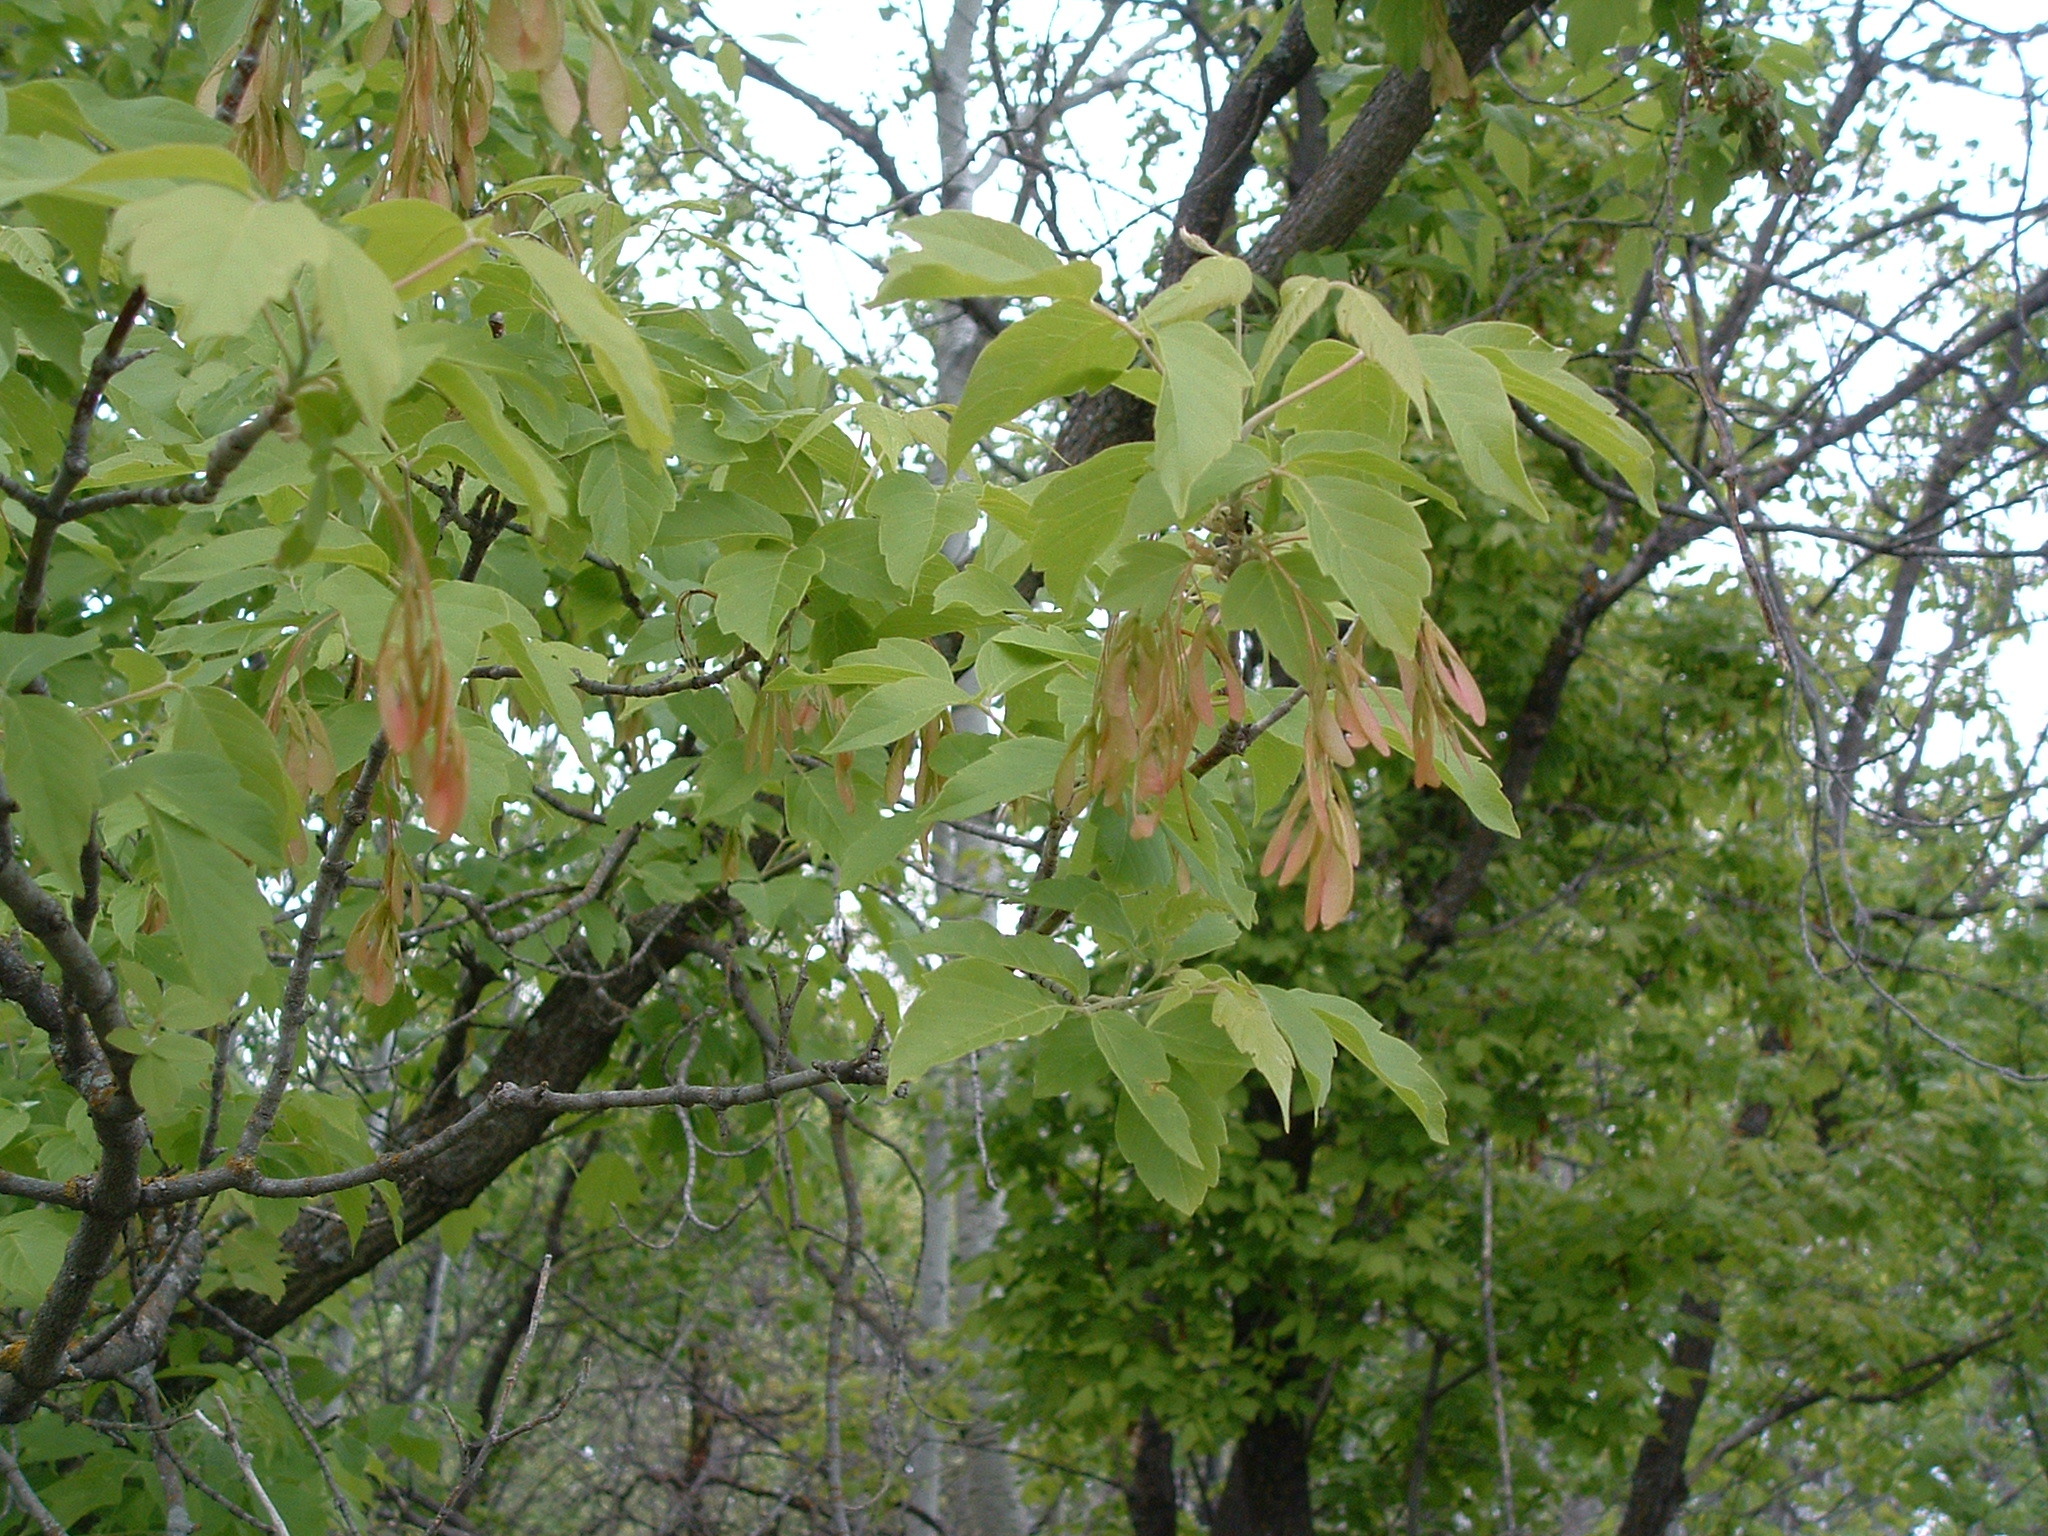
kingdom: Plantae
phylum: Tracheophyta
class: Magnoliopsida
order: Sapindales
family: Sapindaceae
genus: Acer
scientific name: Acer negundo
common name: Ashleaf maple
